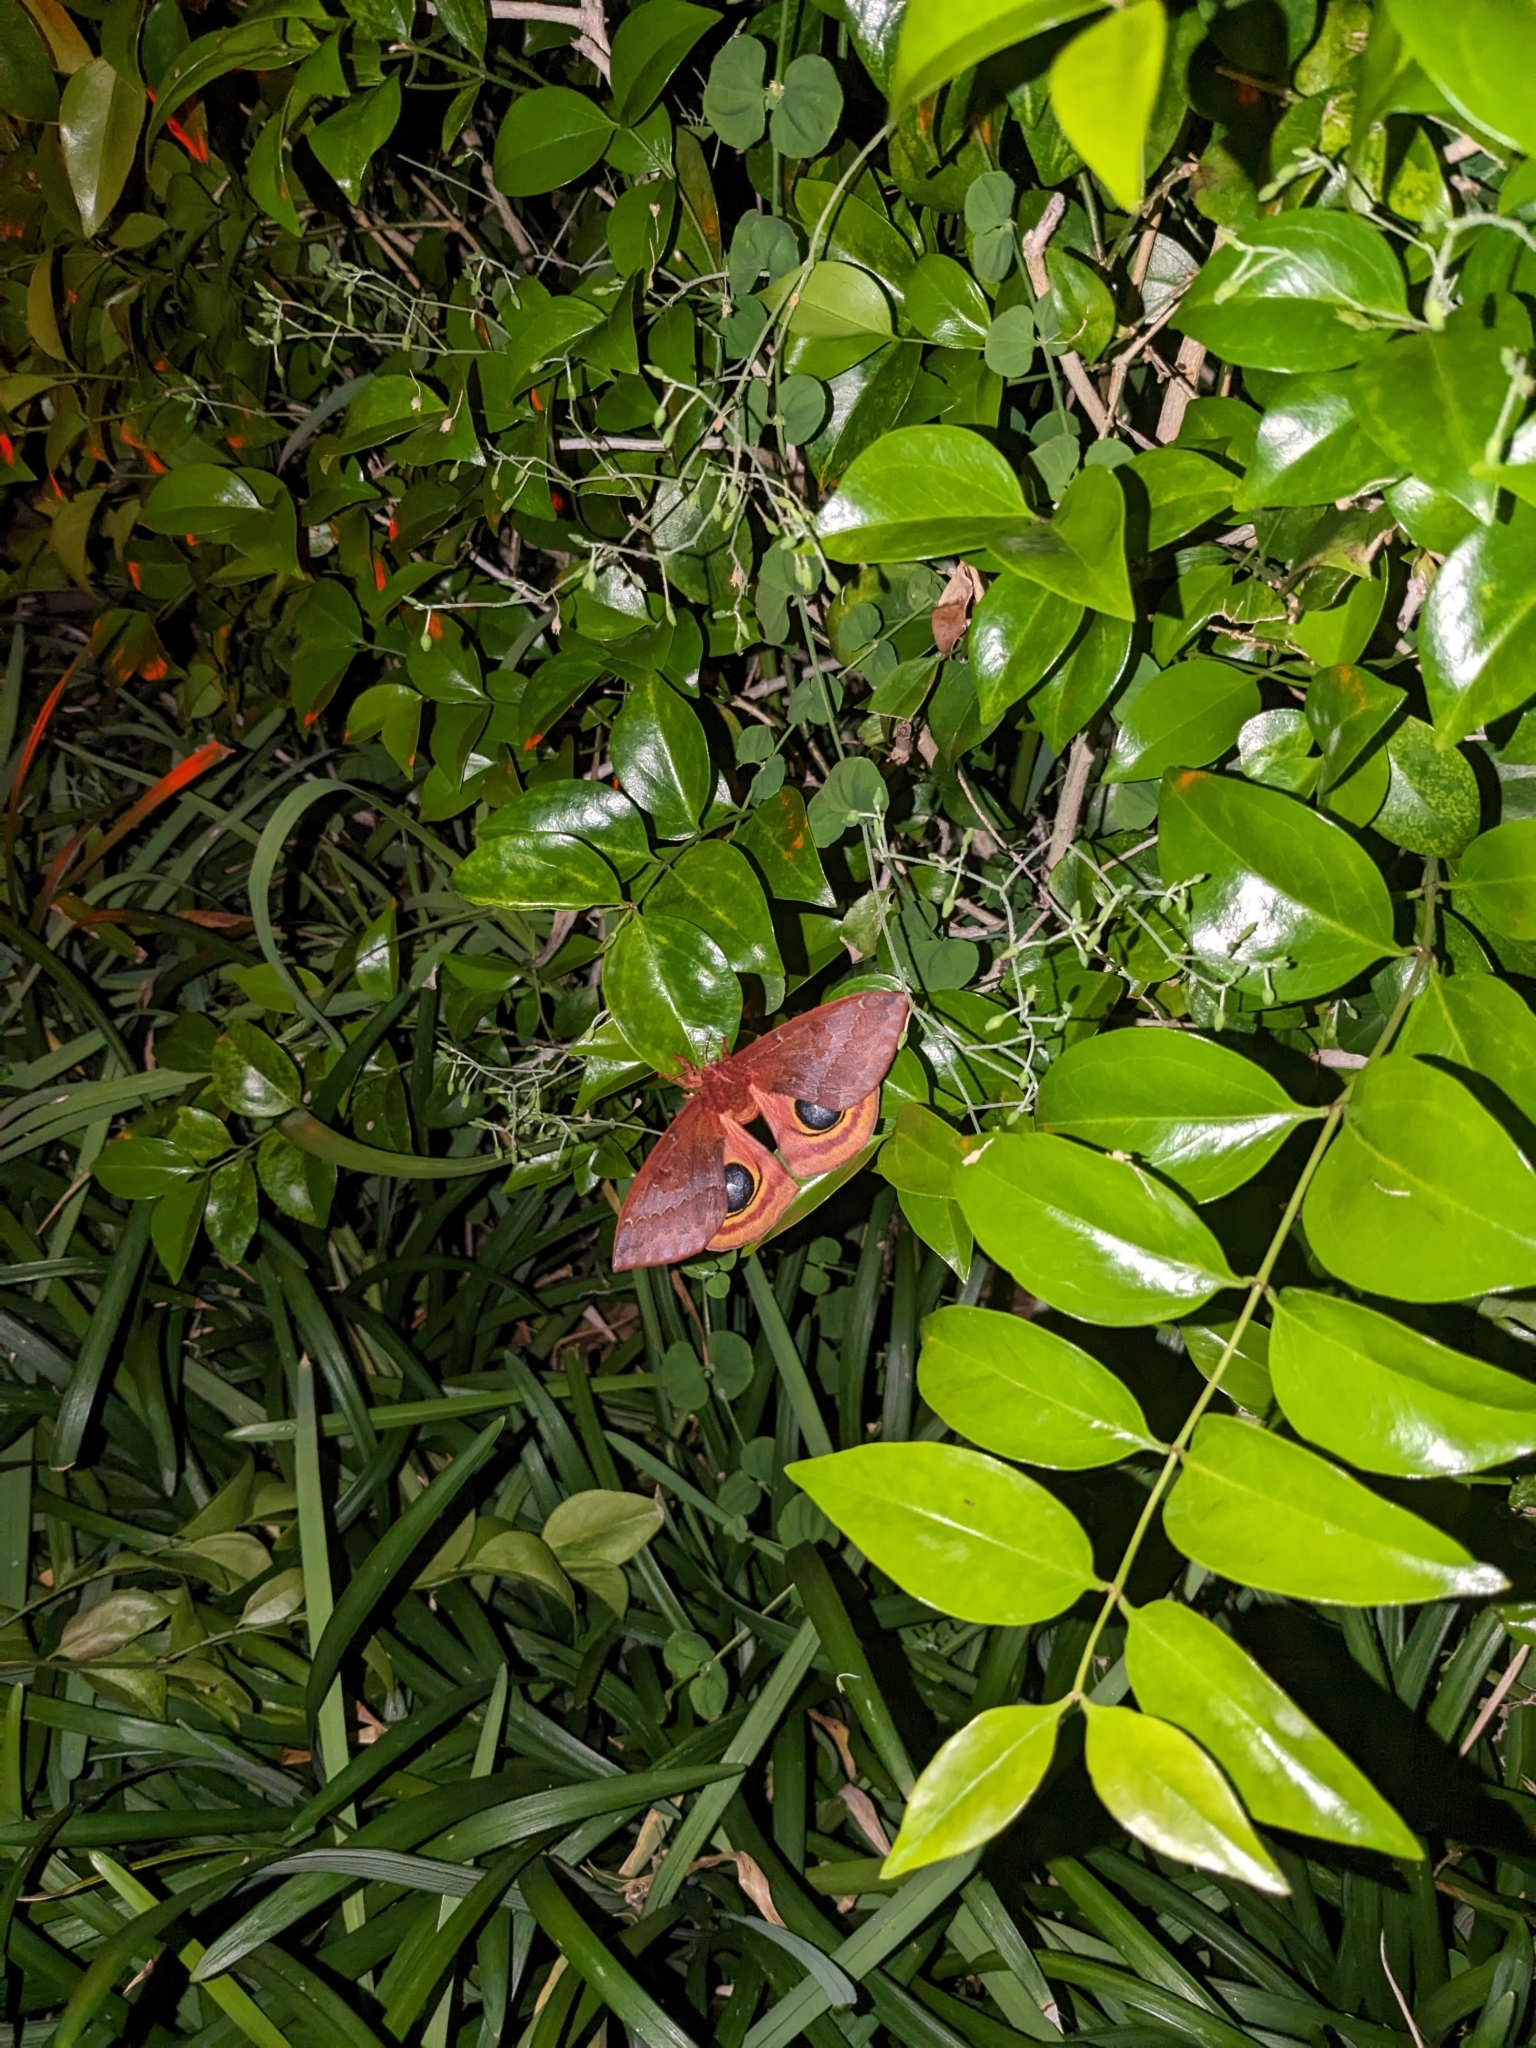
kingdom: Animalia
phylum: Arthropoda
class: Insecta
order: Lepidoptera
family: Saturniidae
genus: Automeris
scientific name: Automeris io
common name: Io moth
